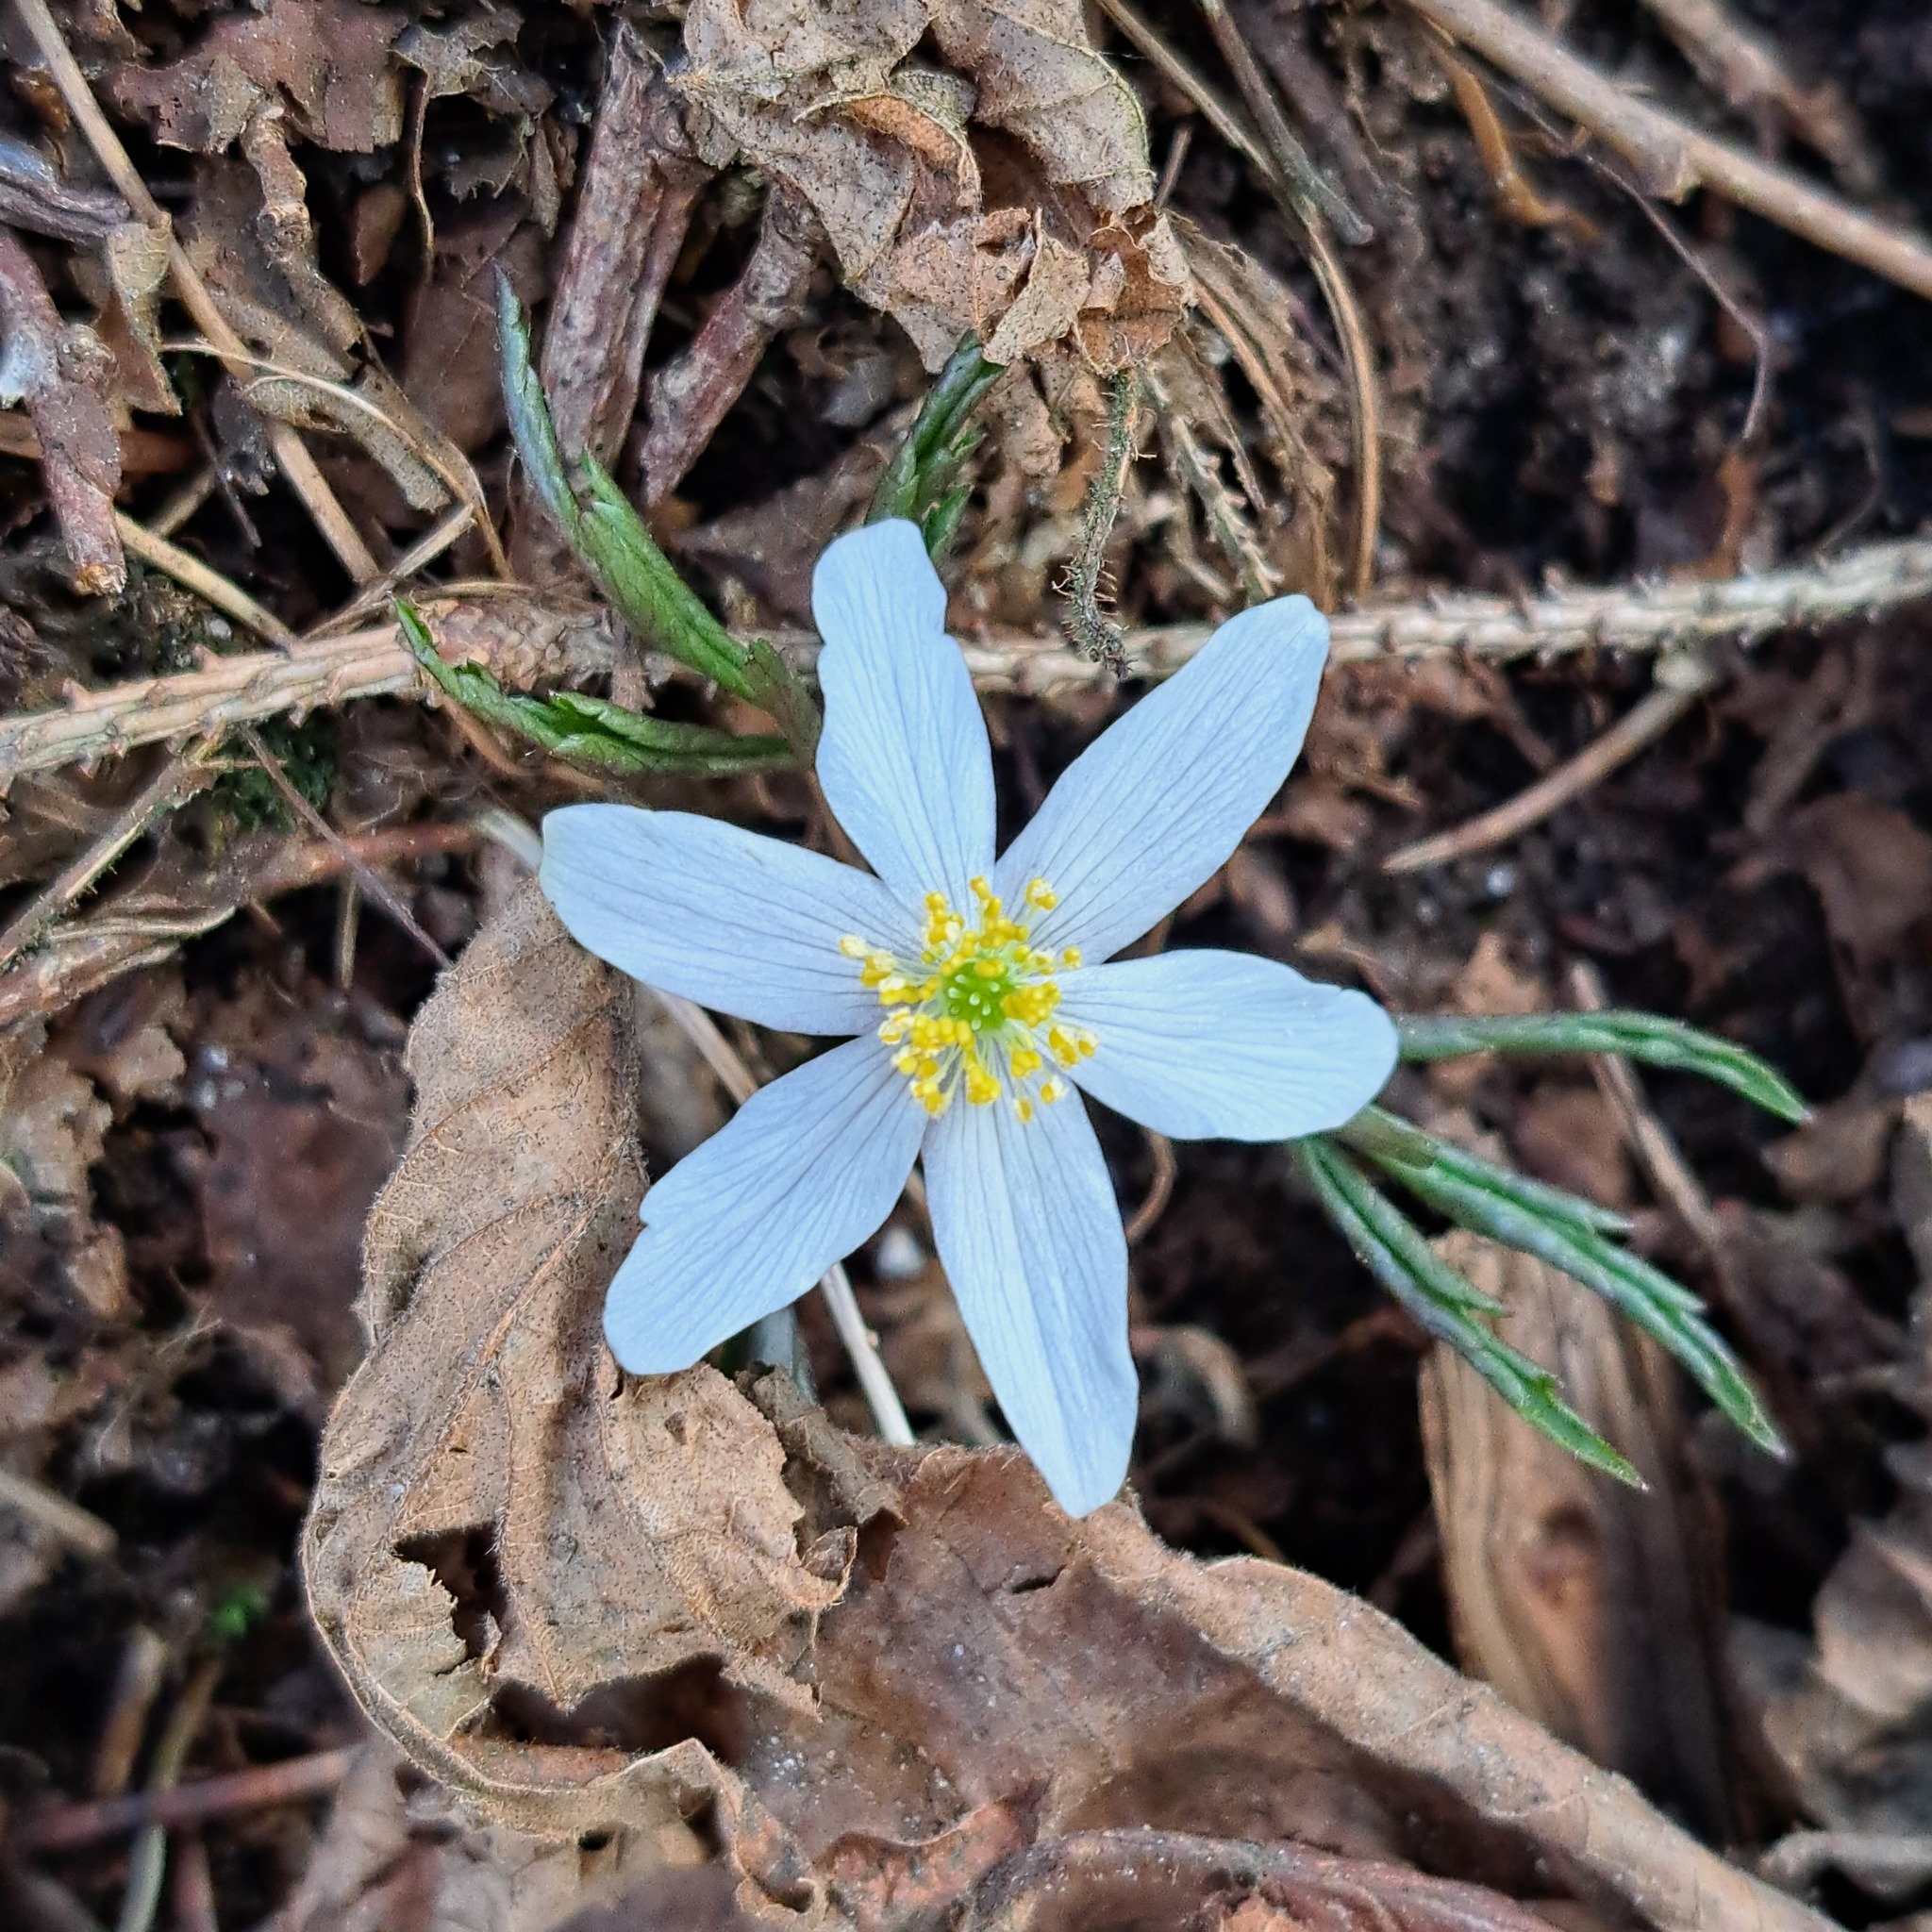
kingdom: Plantae
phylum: Tracheophyta
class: Magnoliopsida
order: Ranunculales
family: Ranunculaceae
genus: Anemone
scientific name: Anemone nemorosa
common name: Wood anemone
